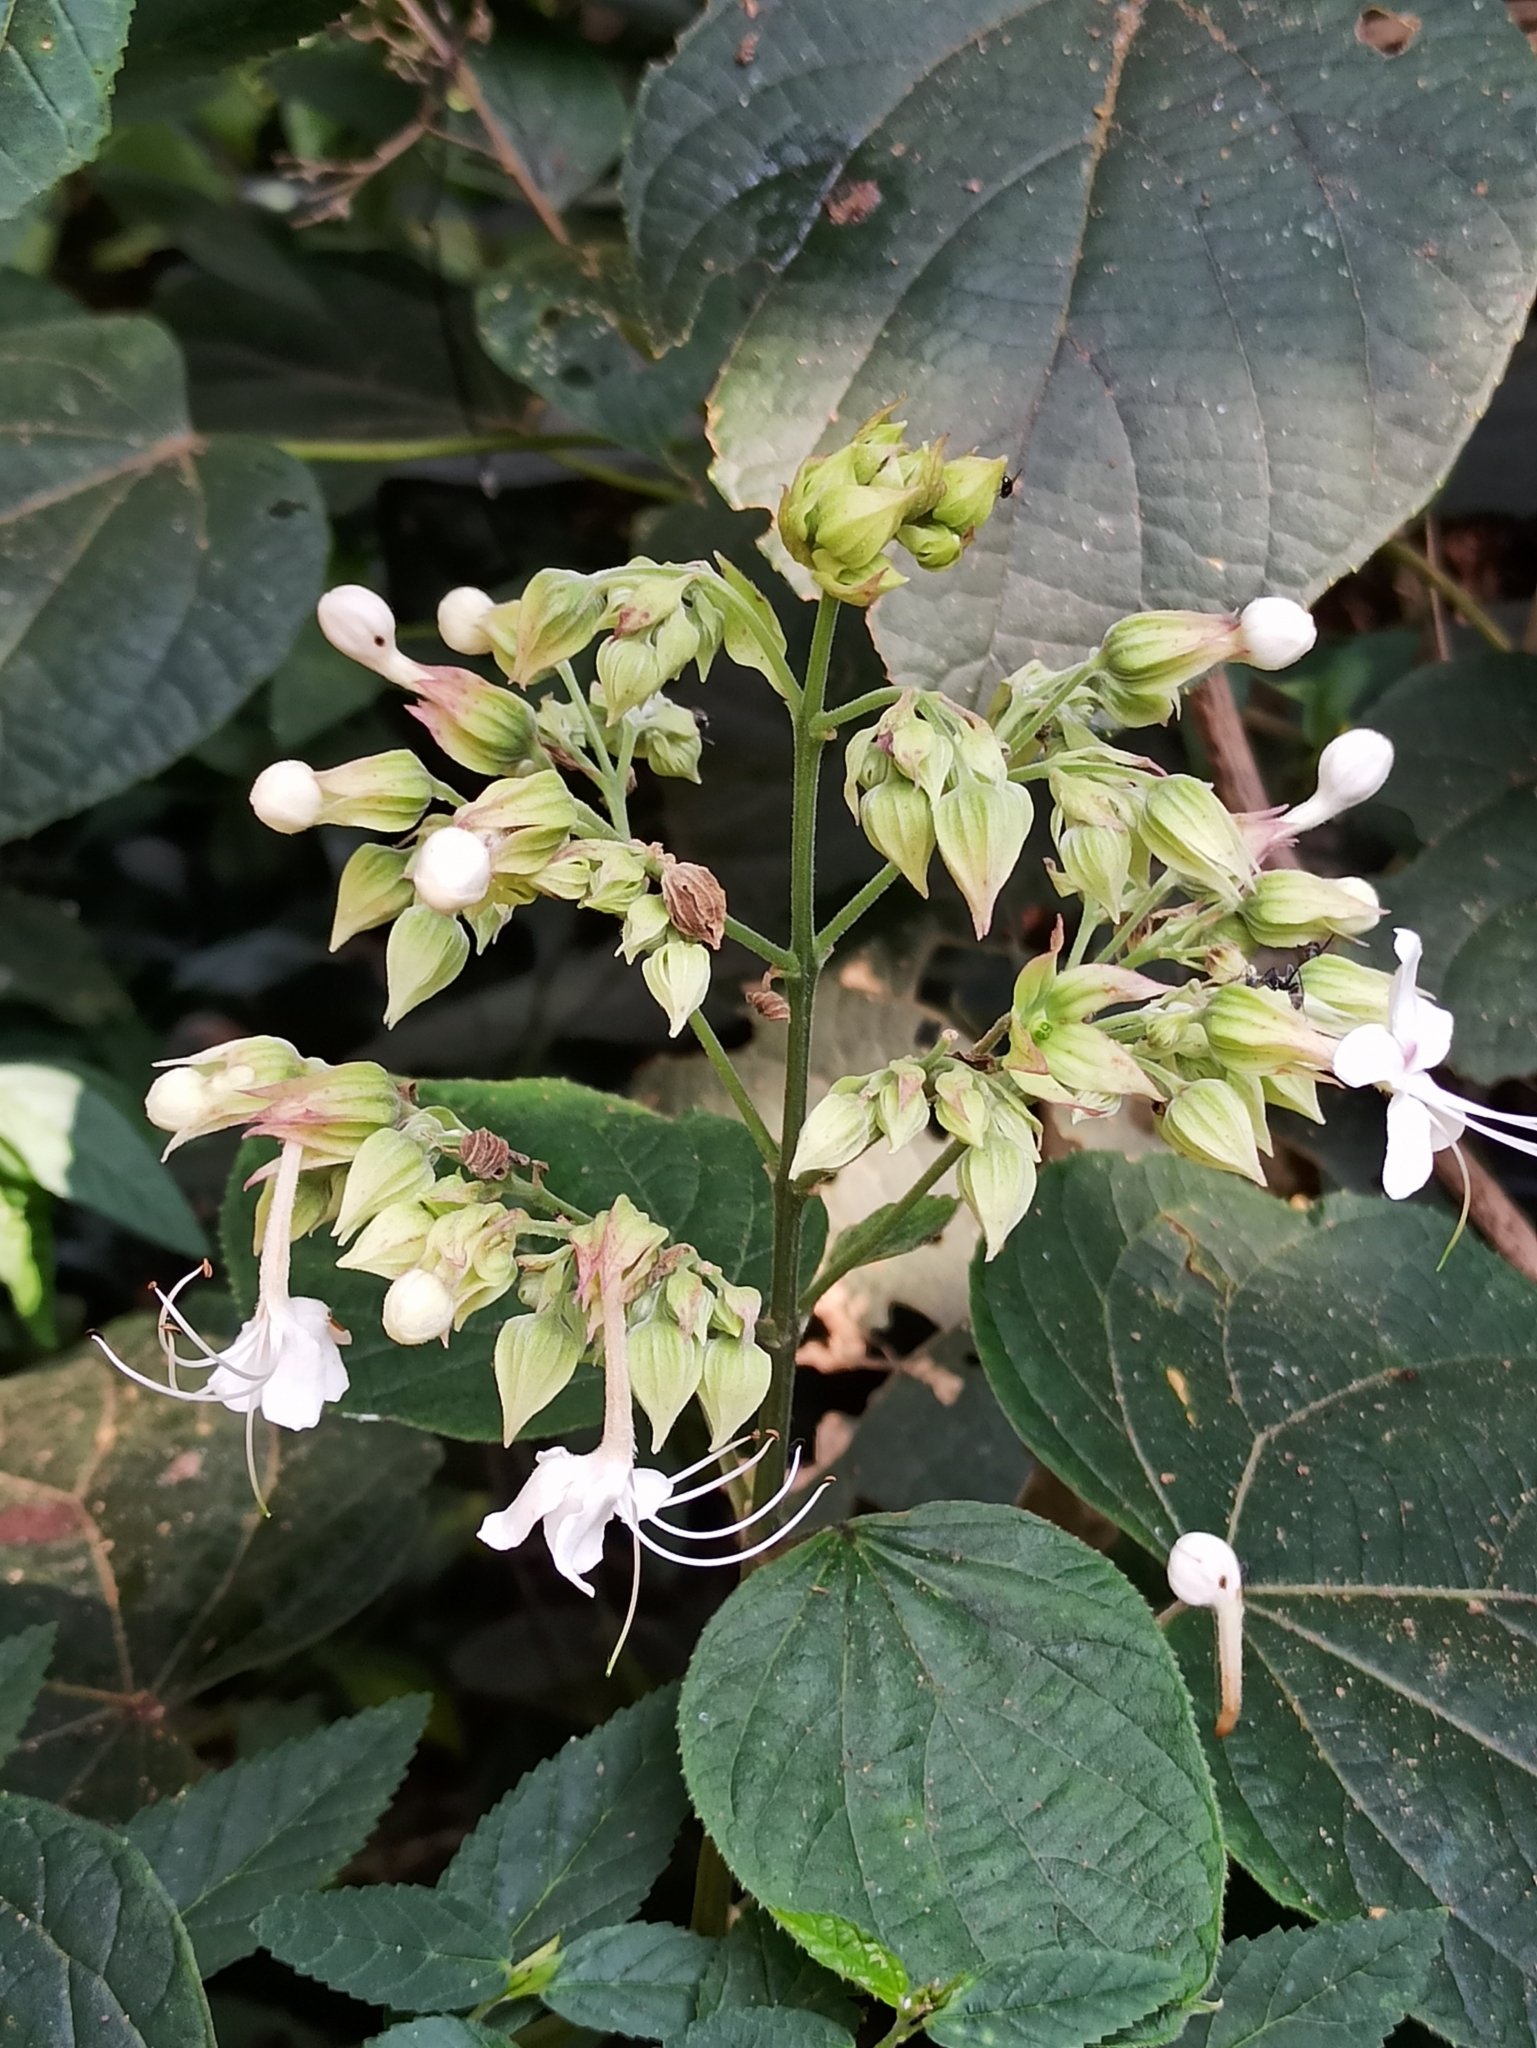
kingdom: Plantae
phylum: Tracheophyta
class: Magnoliopsida
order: Lamiales
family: Lamiaceae
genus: Clerodendrum
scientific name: Clerodendrum infortunatum
